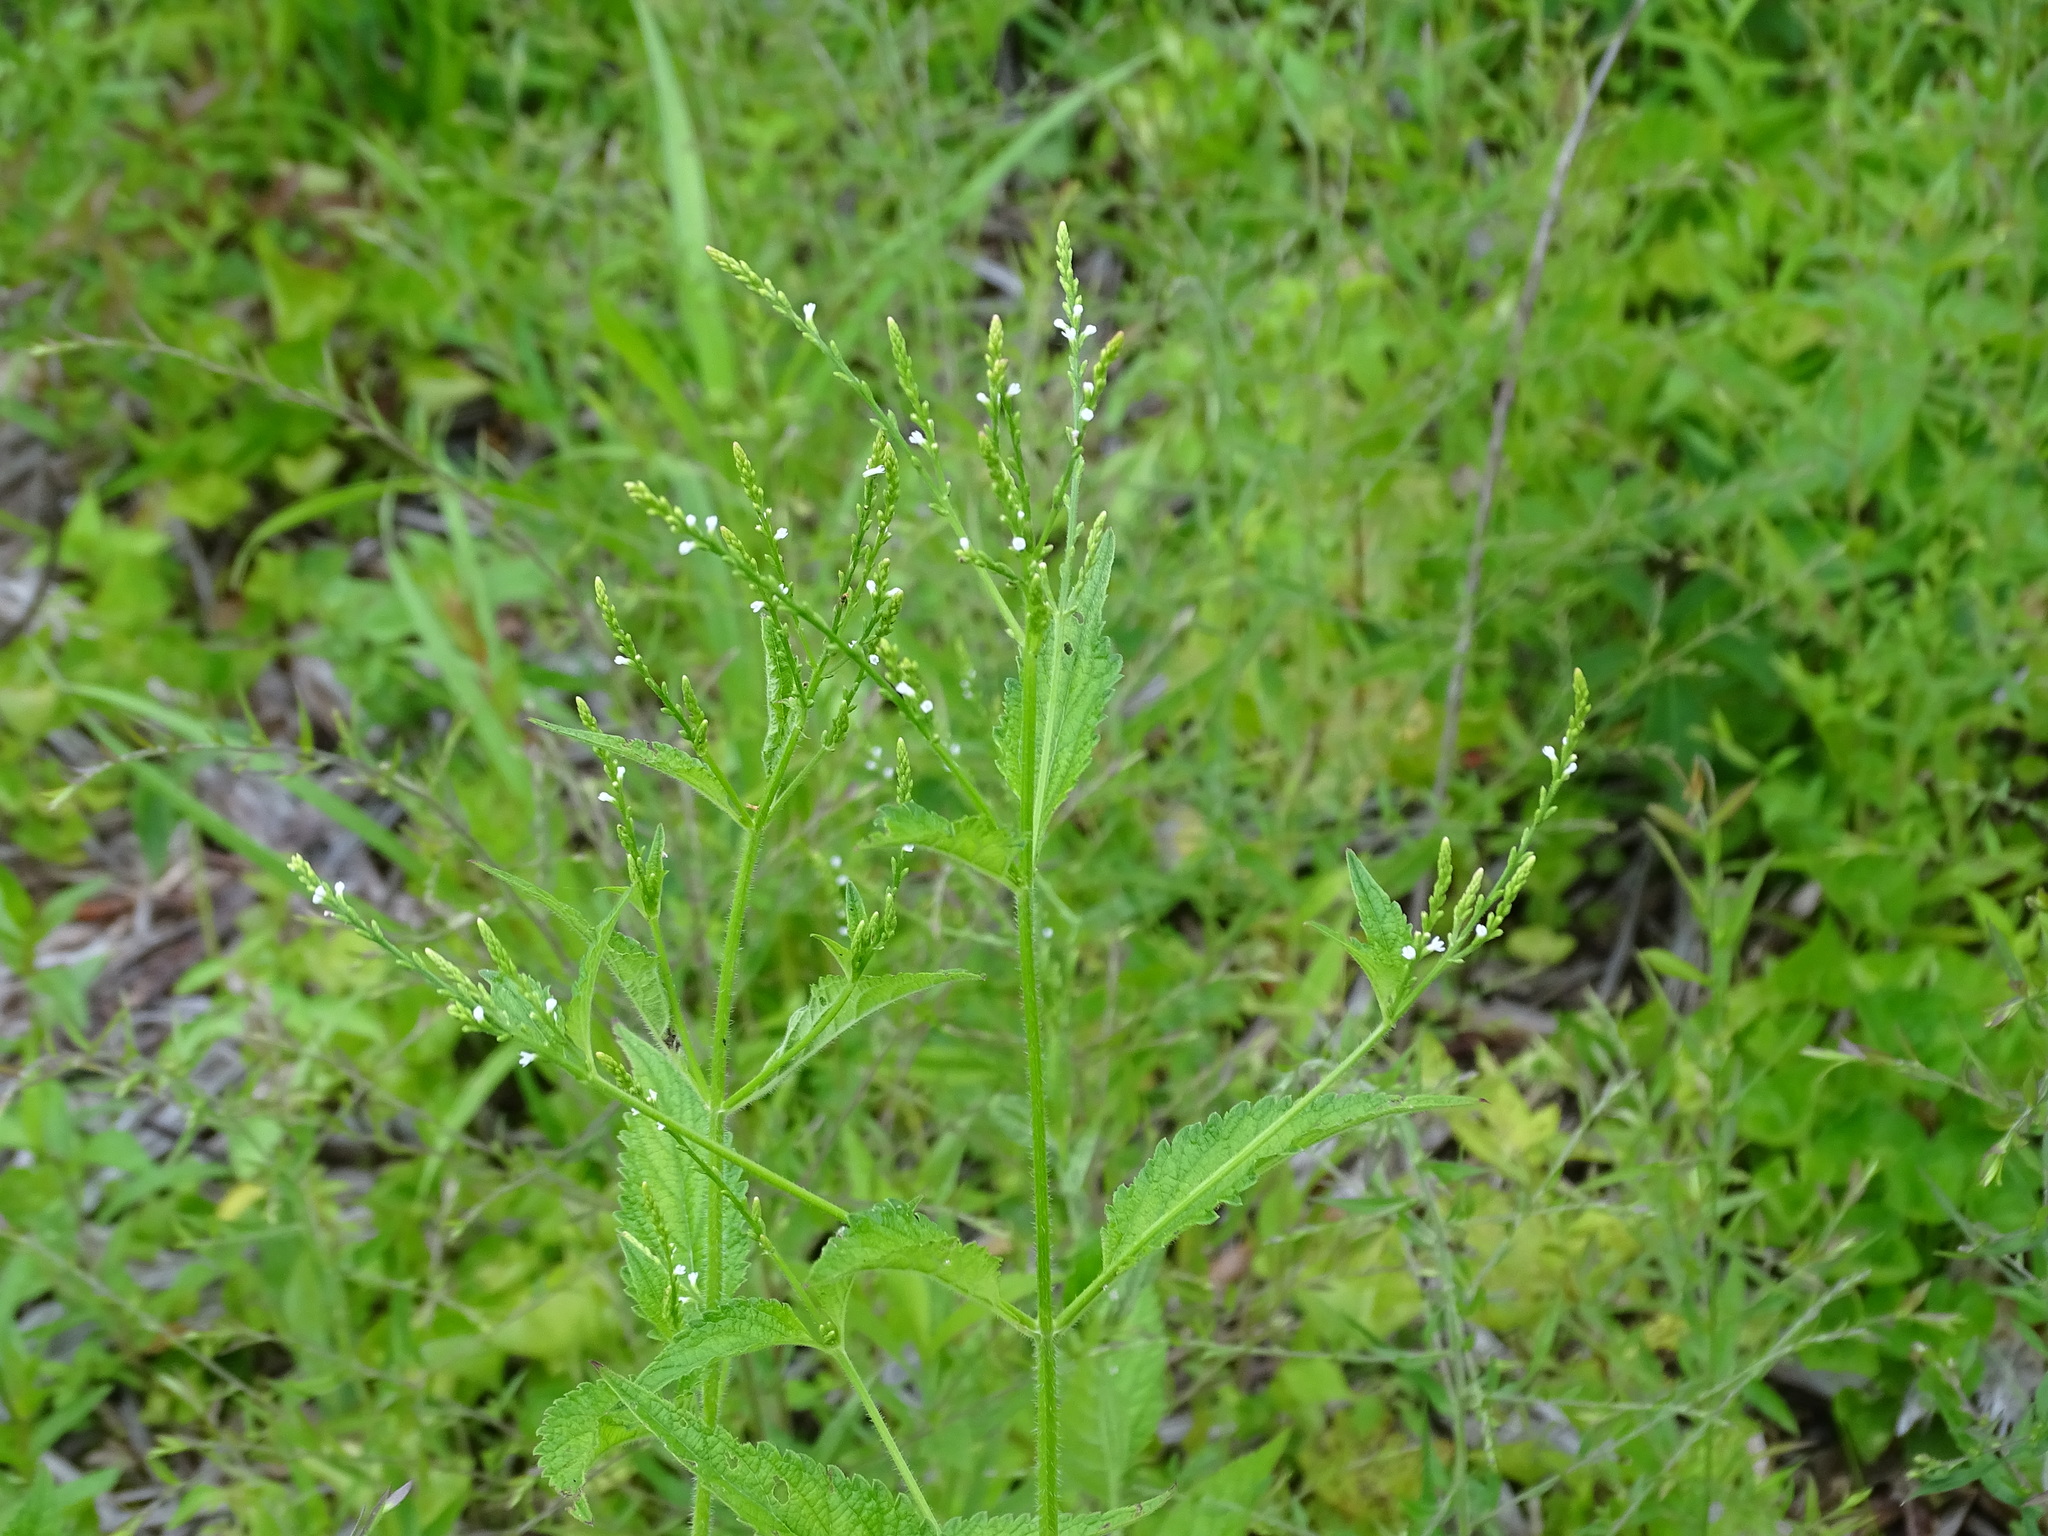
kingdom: Plantae
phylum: Tracheophyta
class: Magnoliopsida
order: Lamiales
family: Verbenaceae
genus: Verbena
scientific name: Verbena urticifolia
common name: Nettle-leaved vervain
